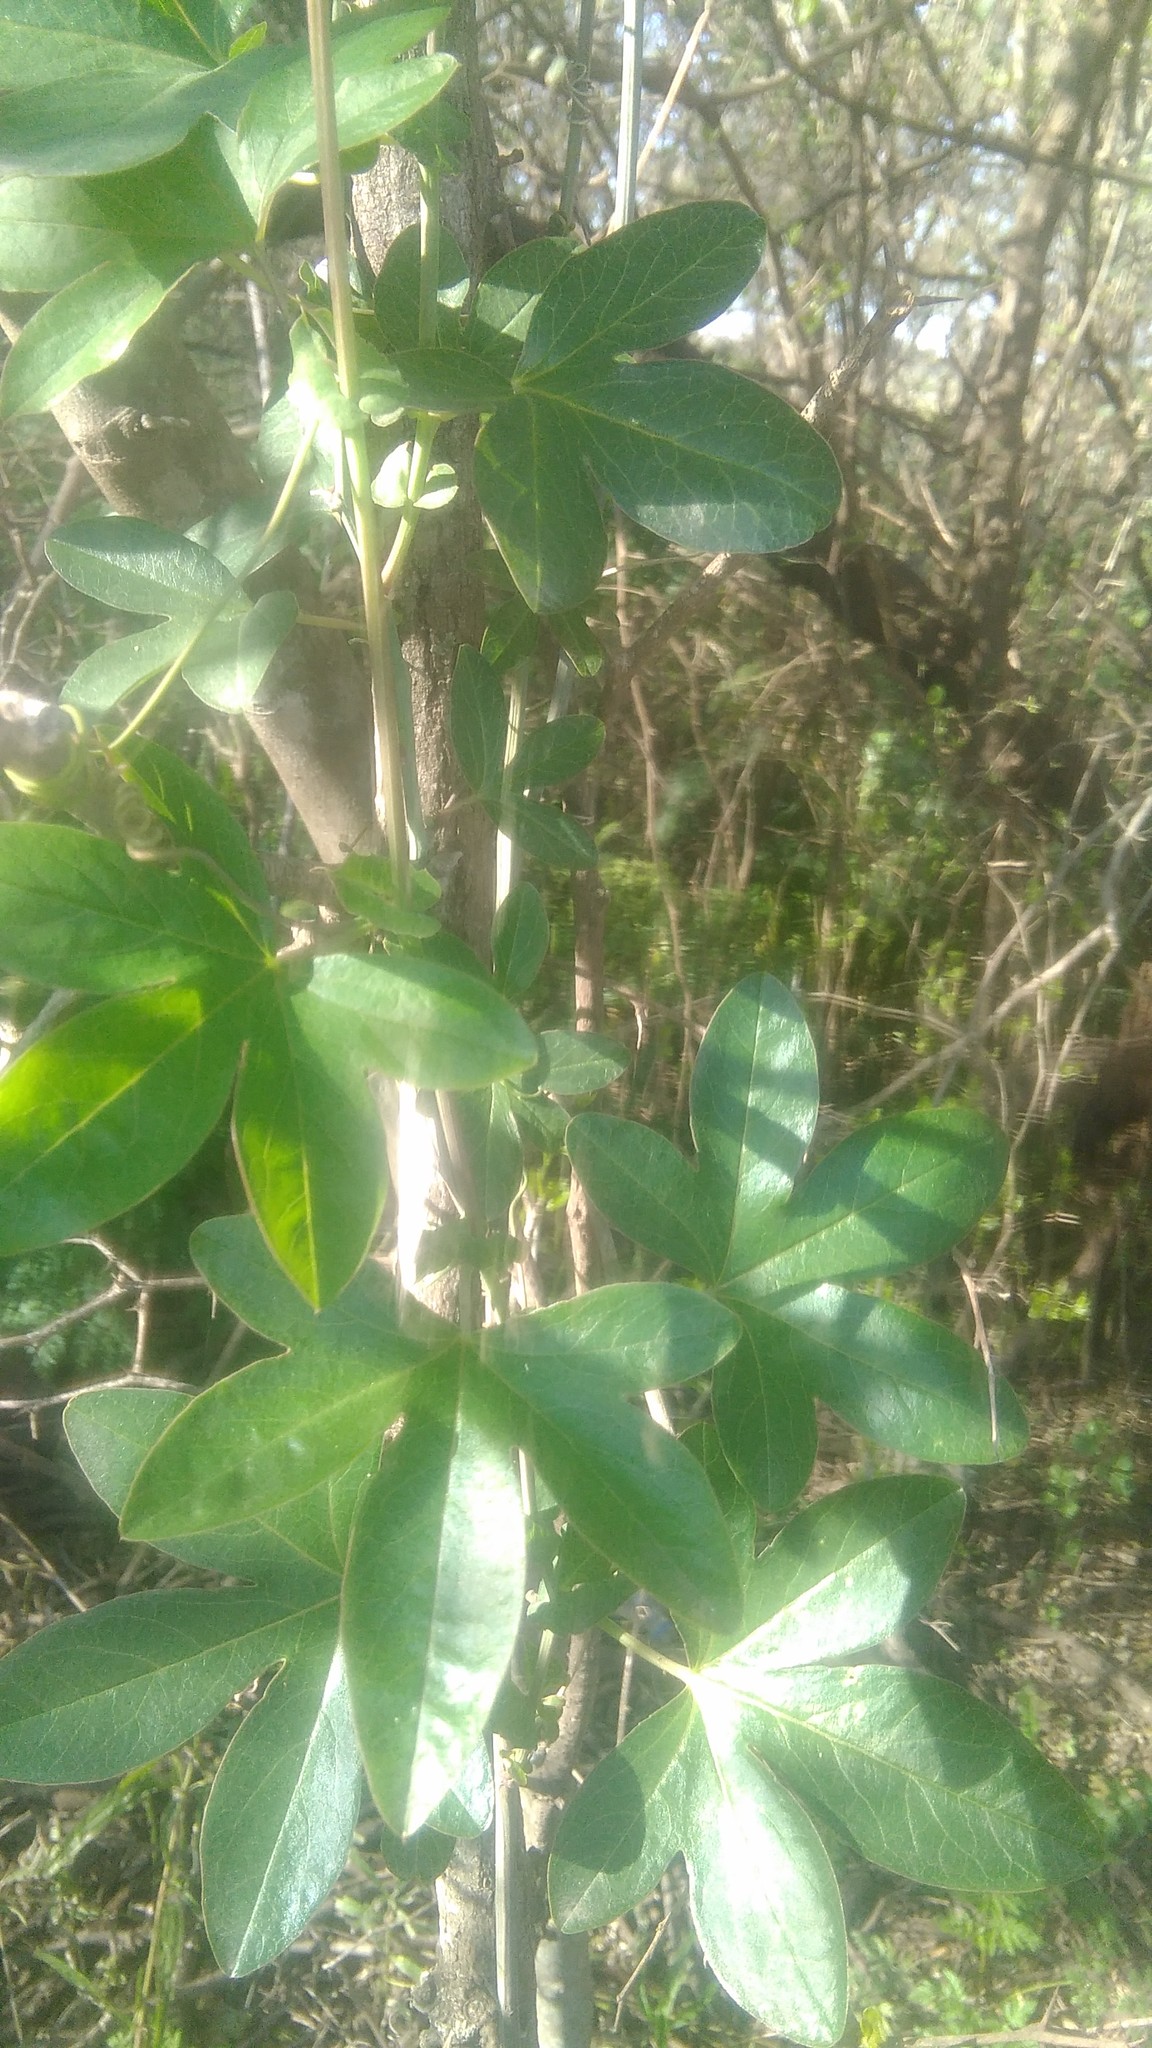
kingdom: Plantae
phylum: Tracheophyta
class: Magnoliopsida
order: Malpighiales
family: Passifloraceae
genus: Passiflora
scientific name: Passiflora caerulea
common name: Blue passionflower
